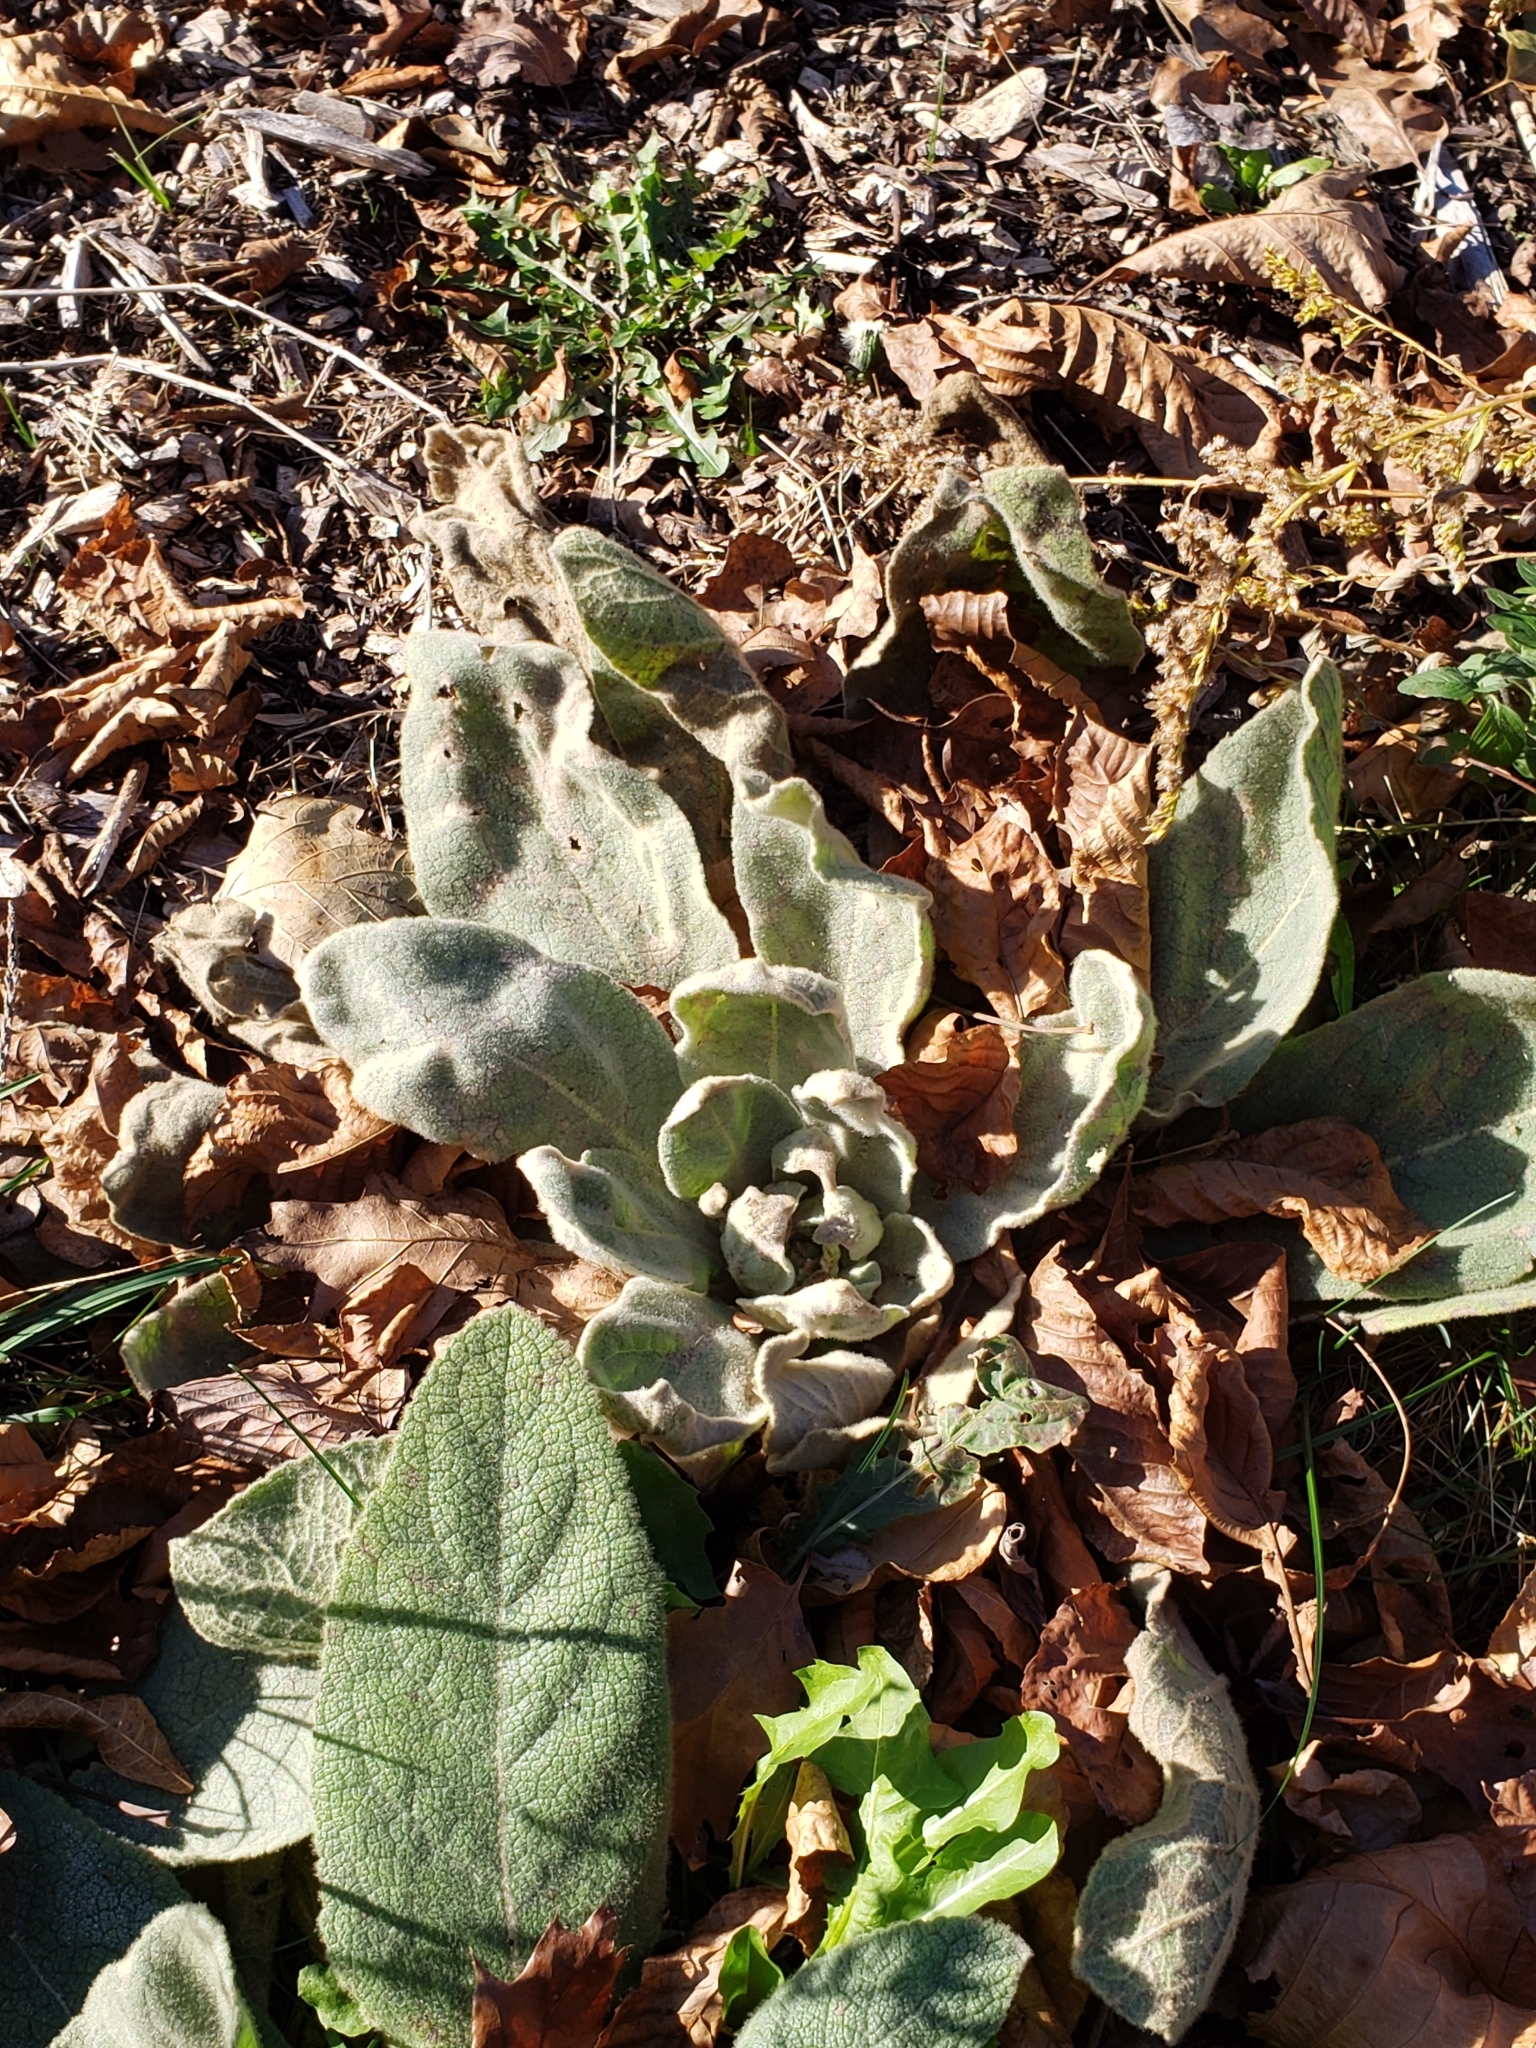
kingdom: Plantae
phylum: Tracheophyta
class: Magnoliopsida
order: Lamiales
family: Scrophulariaceae
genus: Verbascum
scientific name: Verbascum thapsus
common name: Common mullein
